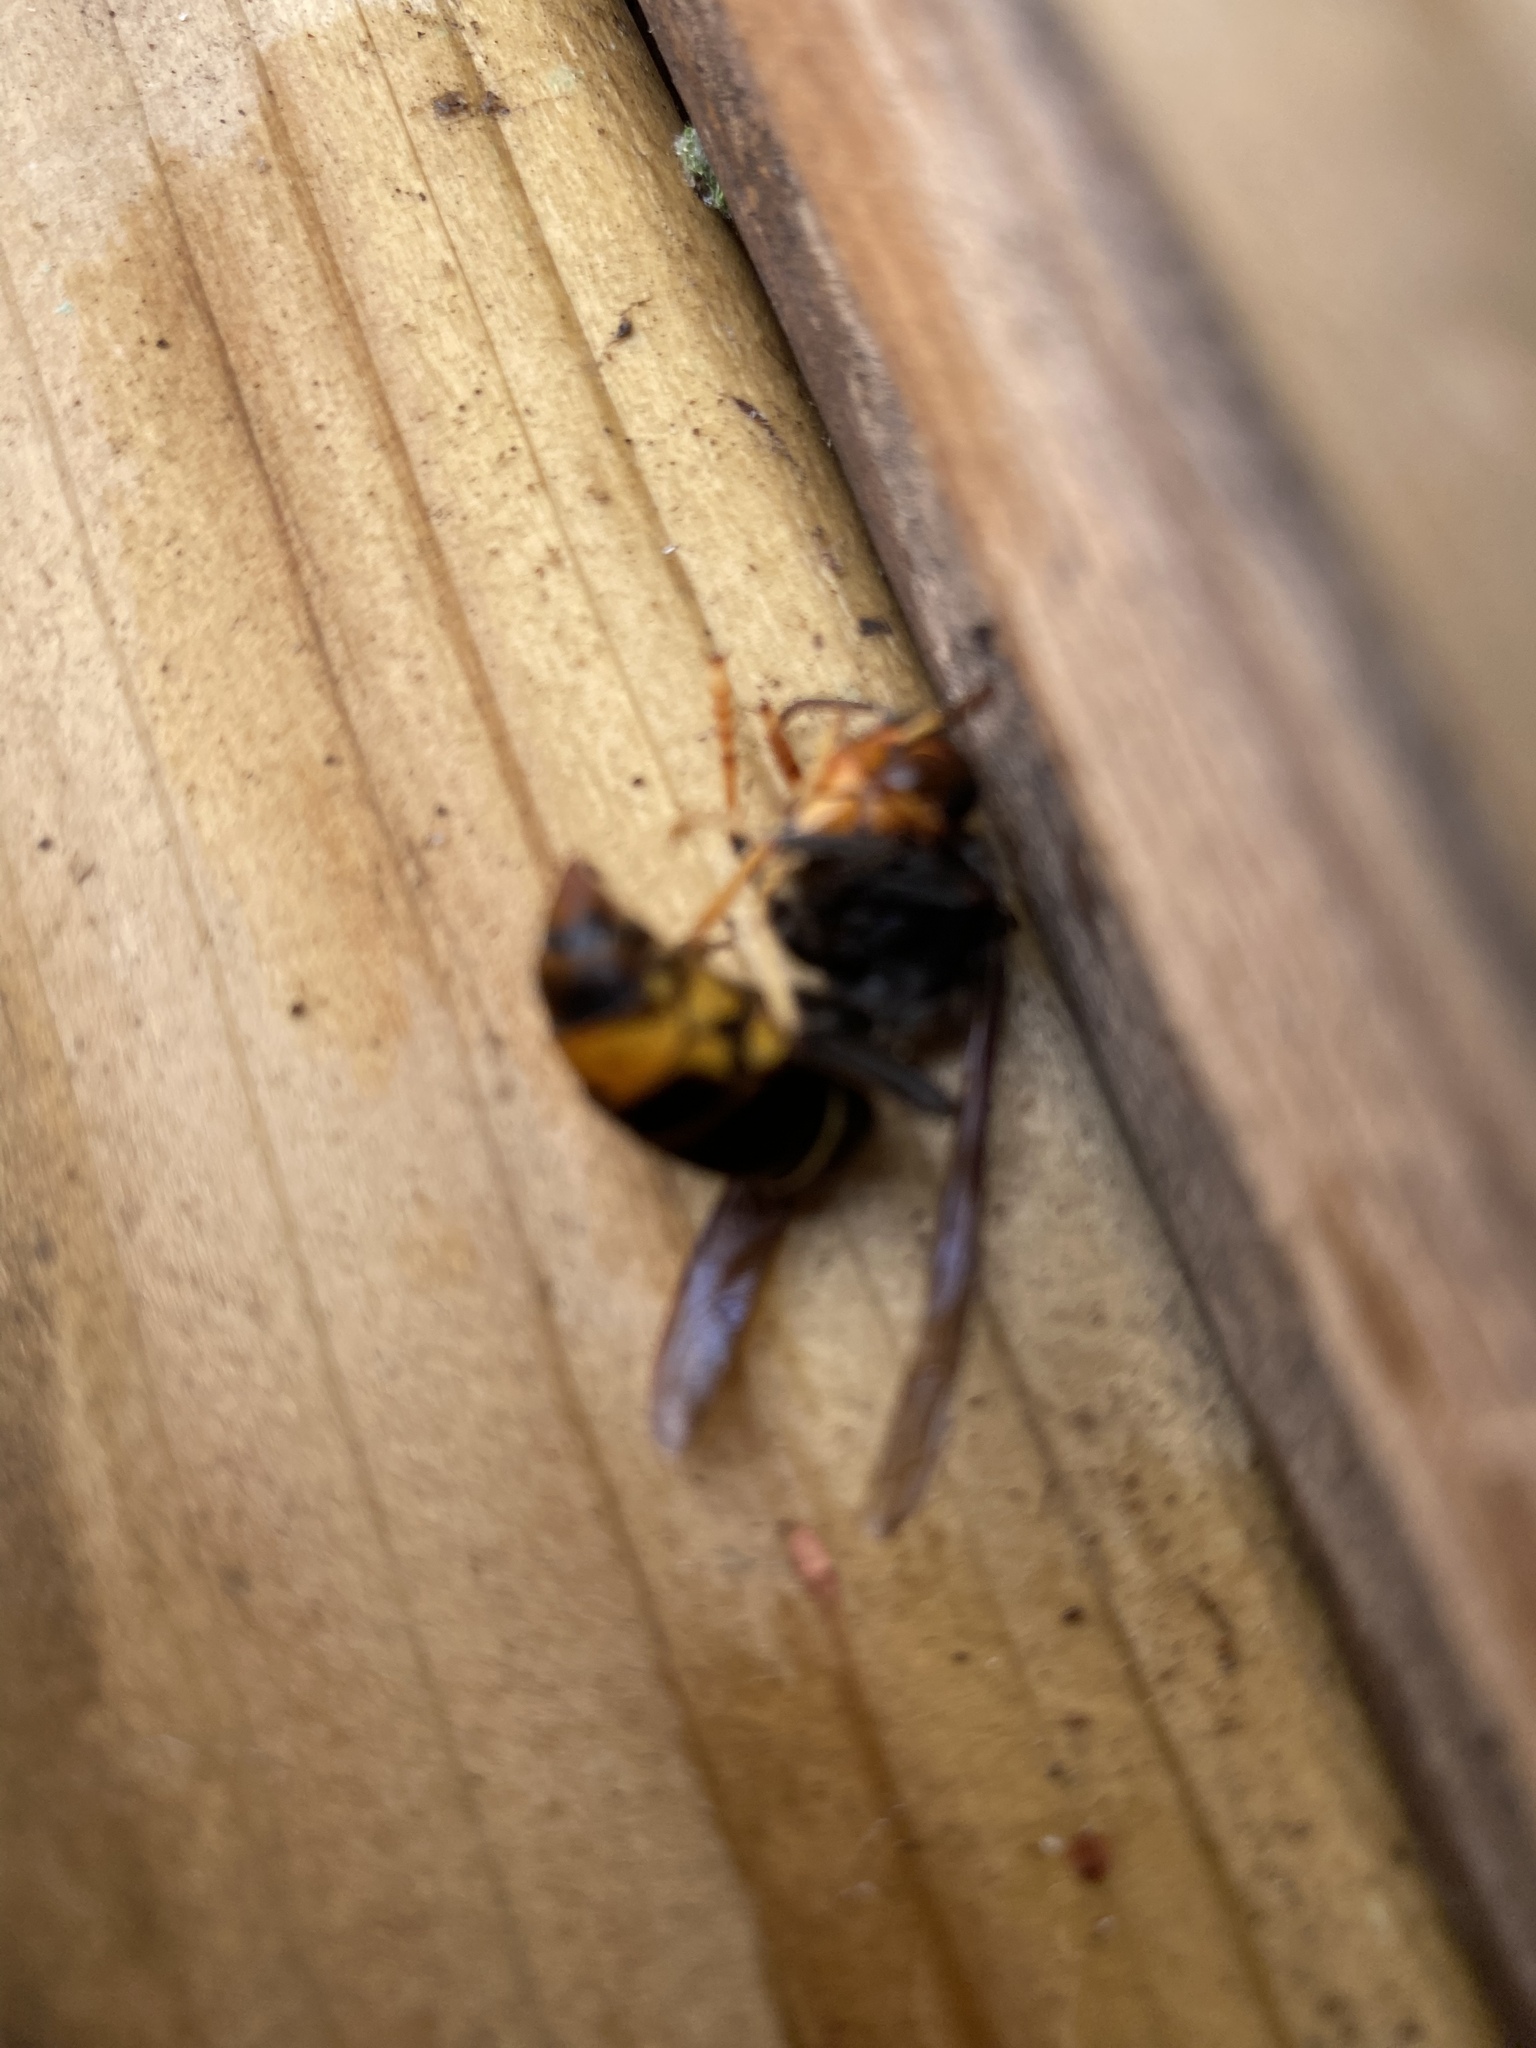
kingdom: Animalia
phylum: Arthropoda
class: Insecta
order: Hymenoptera
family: Vespidae
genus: Vespa
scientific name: Vespa velutina
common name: Asian hornet
